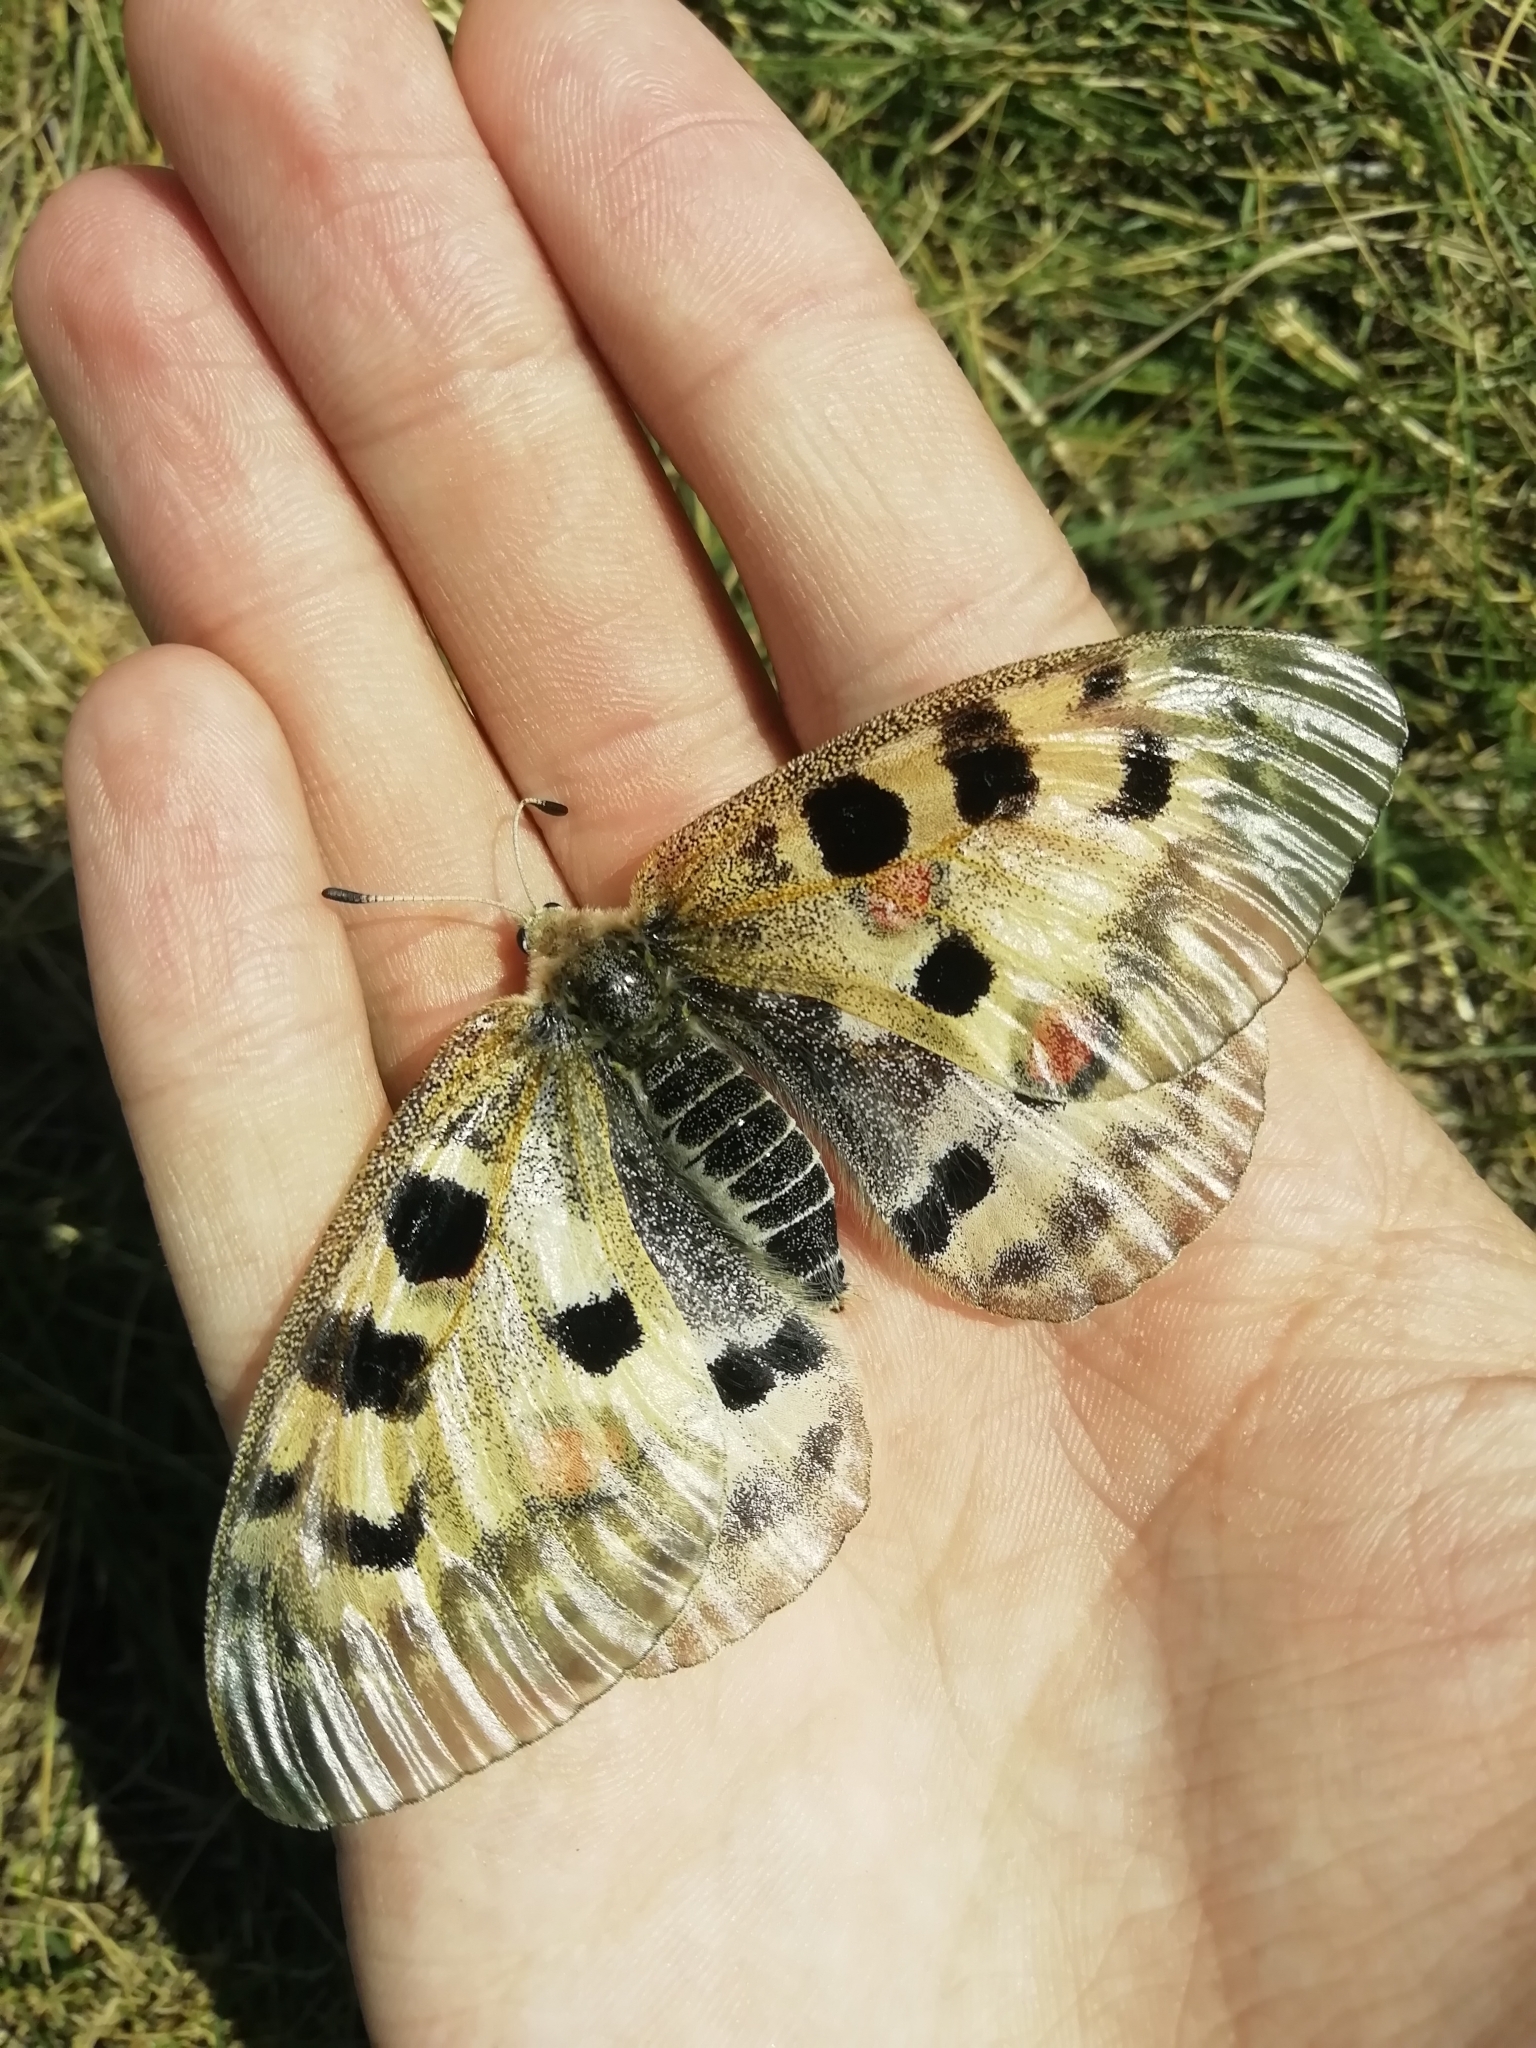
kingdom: Animalia
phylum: Arthropoda
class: Insecta
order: Lepidoptera
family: Papilionidae
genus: Parnassius
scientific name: Parnassius apollo
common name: Apollo
